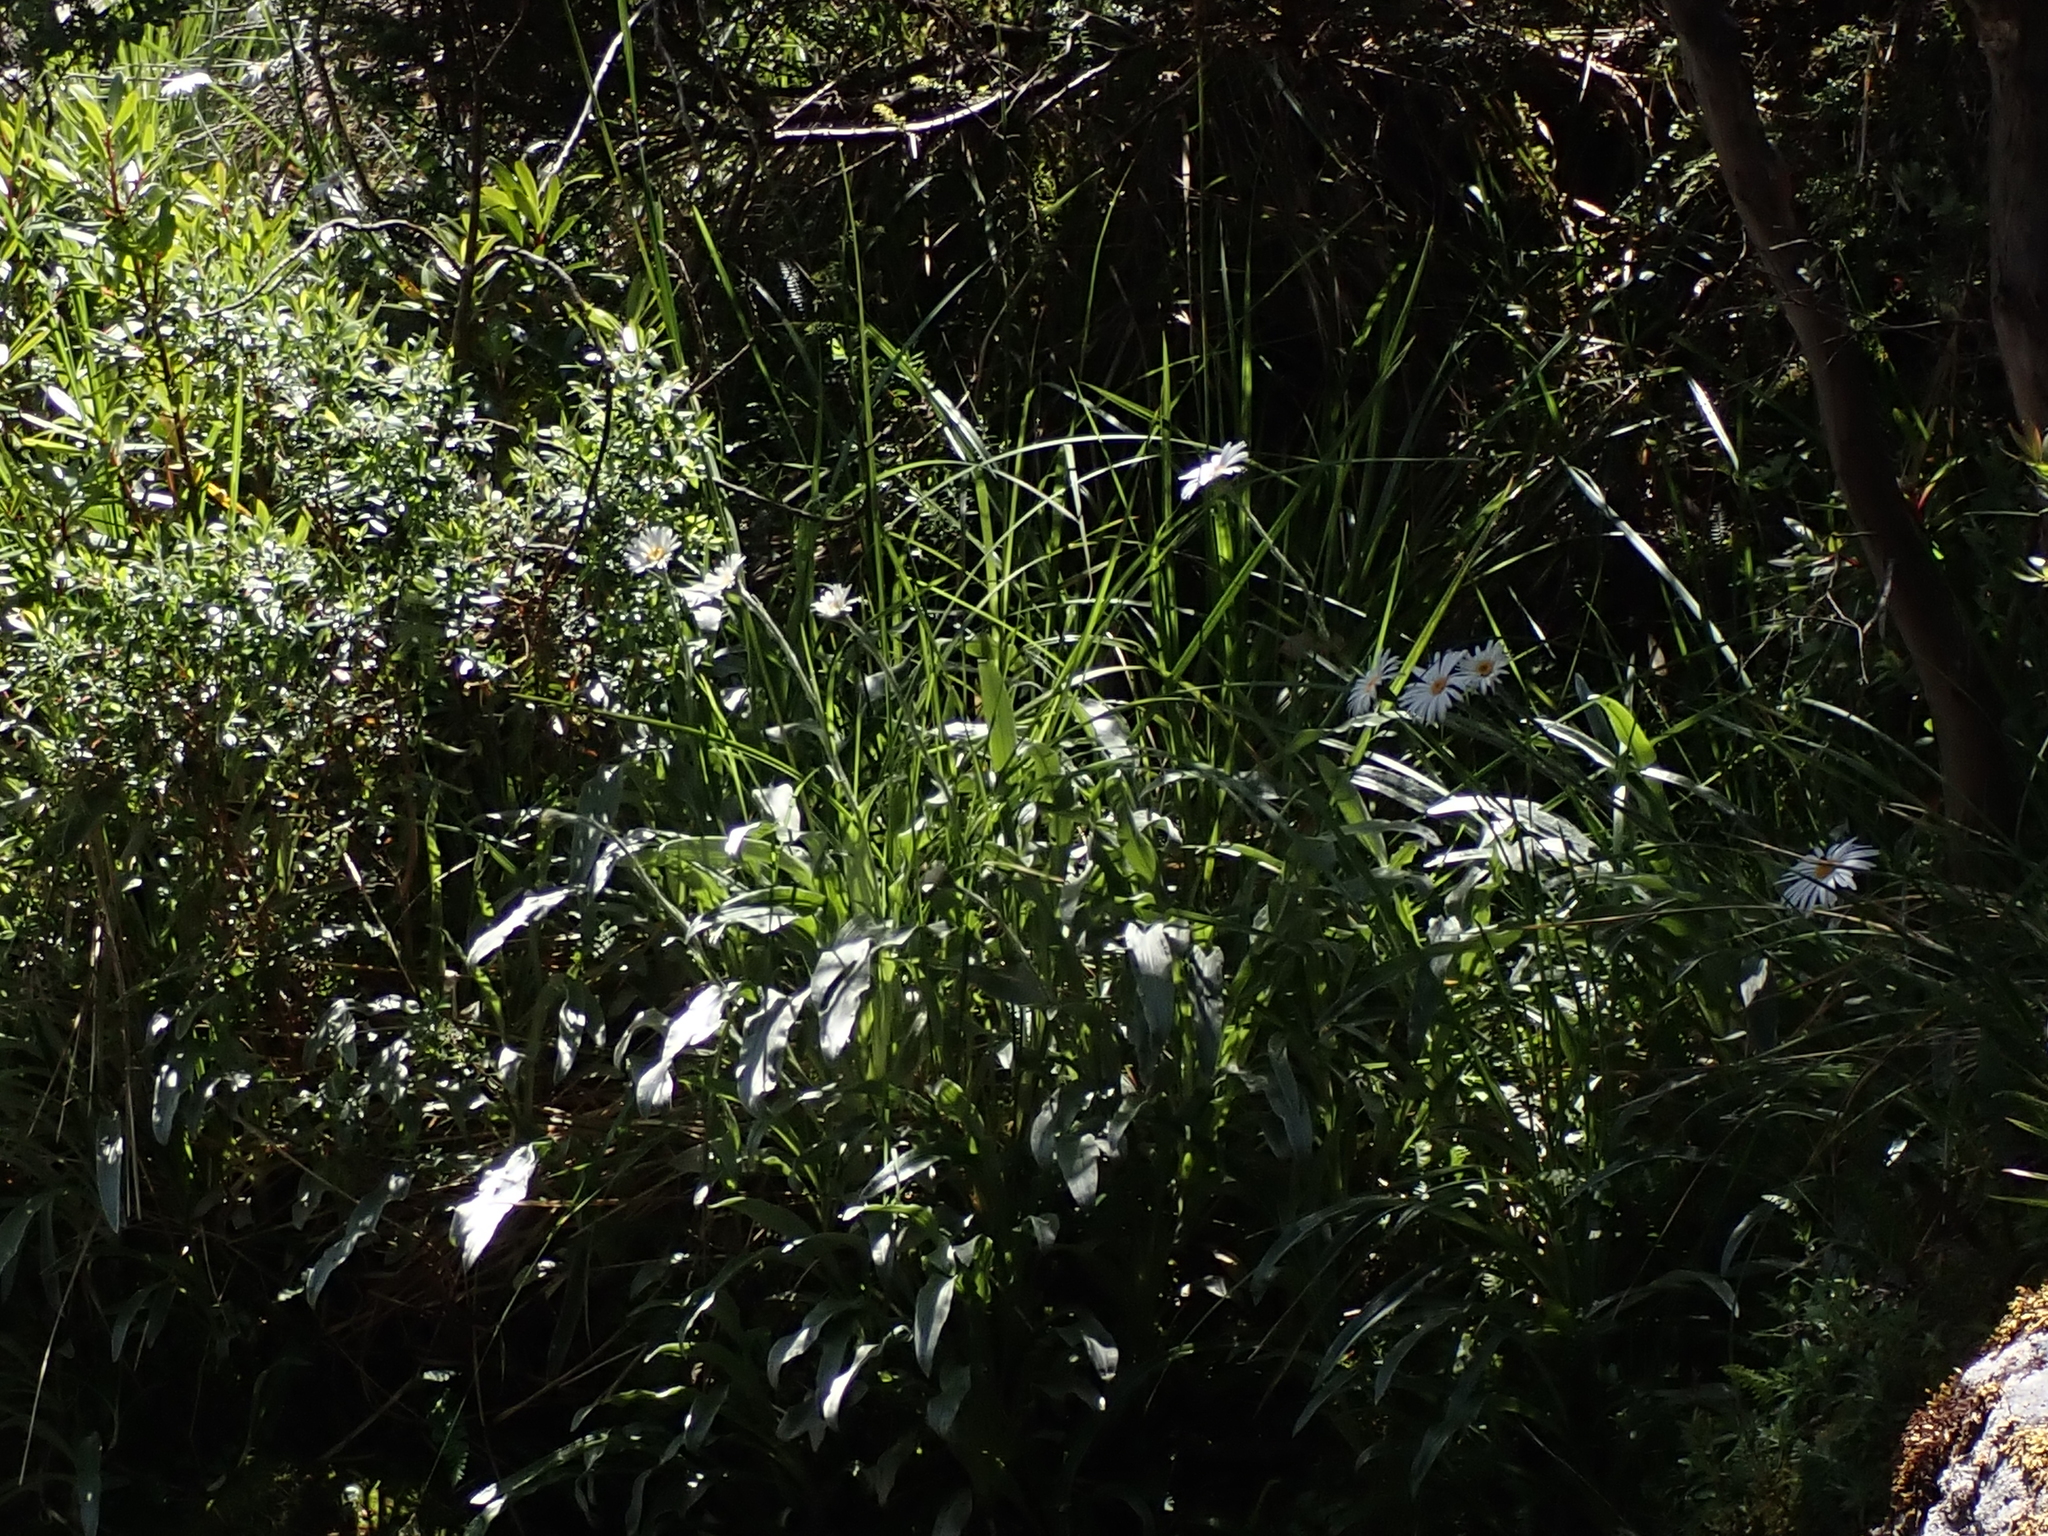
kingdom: Plantae
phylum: Tracheophyta
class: Magnoliopsida
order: Asterales
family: Asteraceae
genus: Celmisia
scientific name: Celmisia sericophylla
